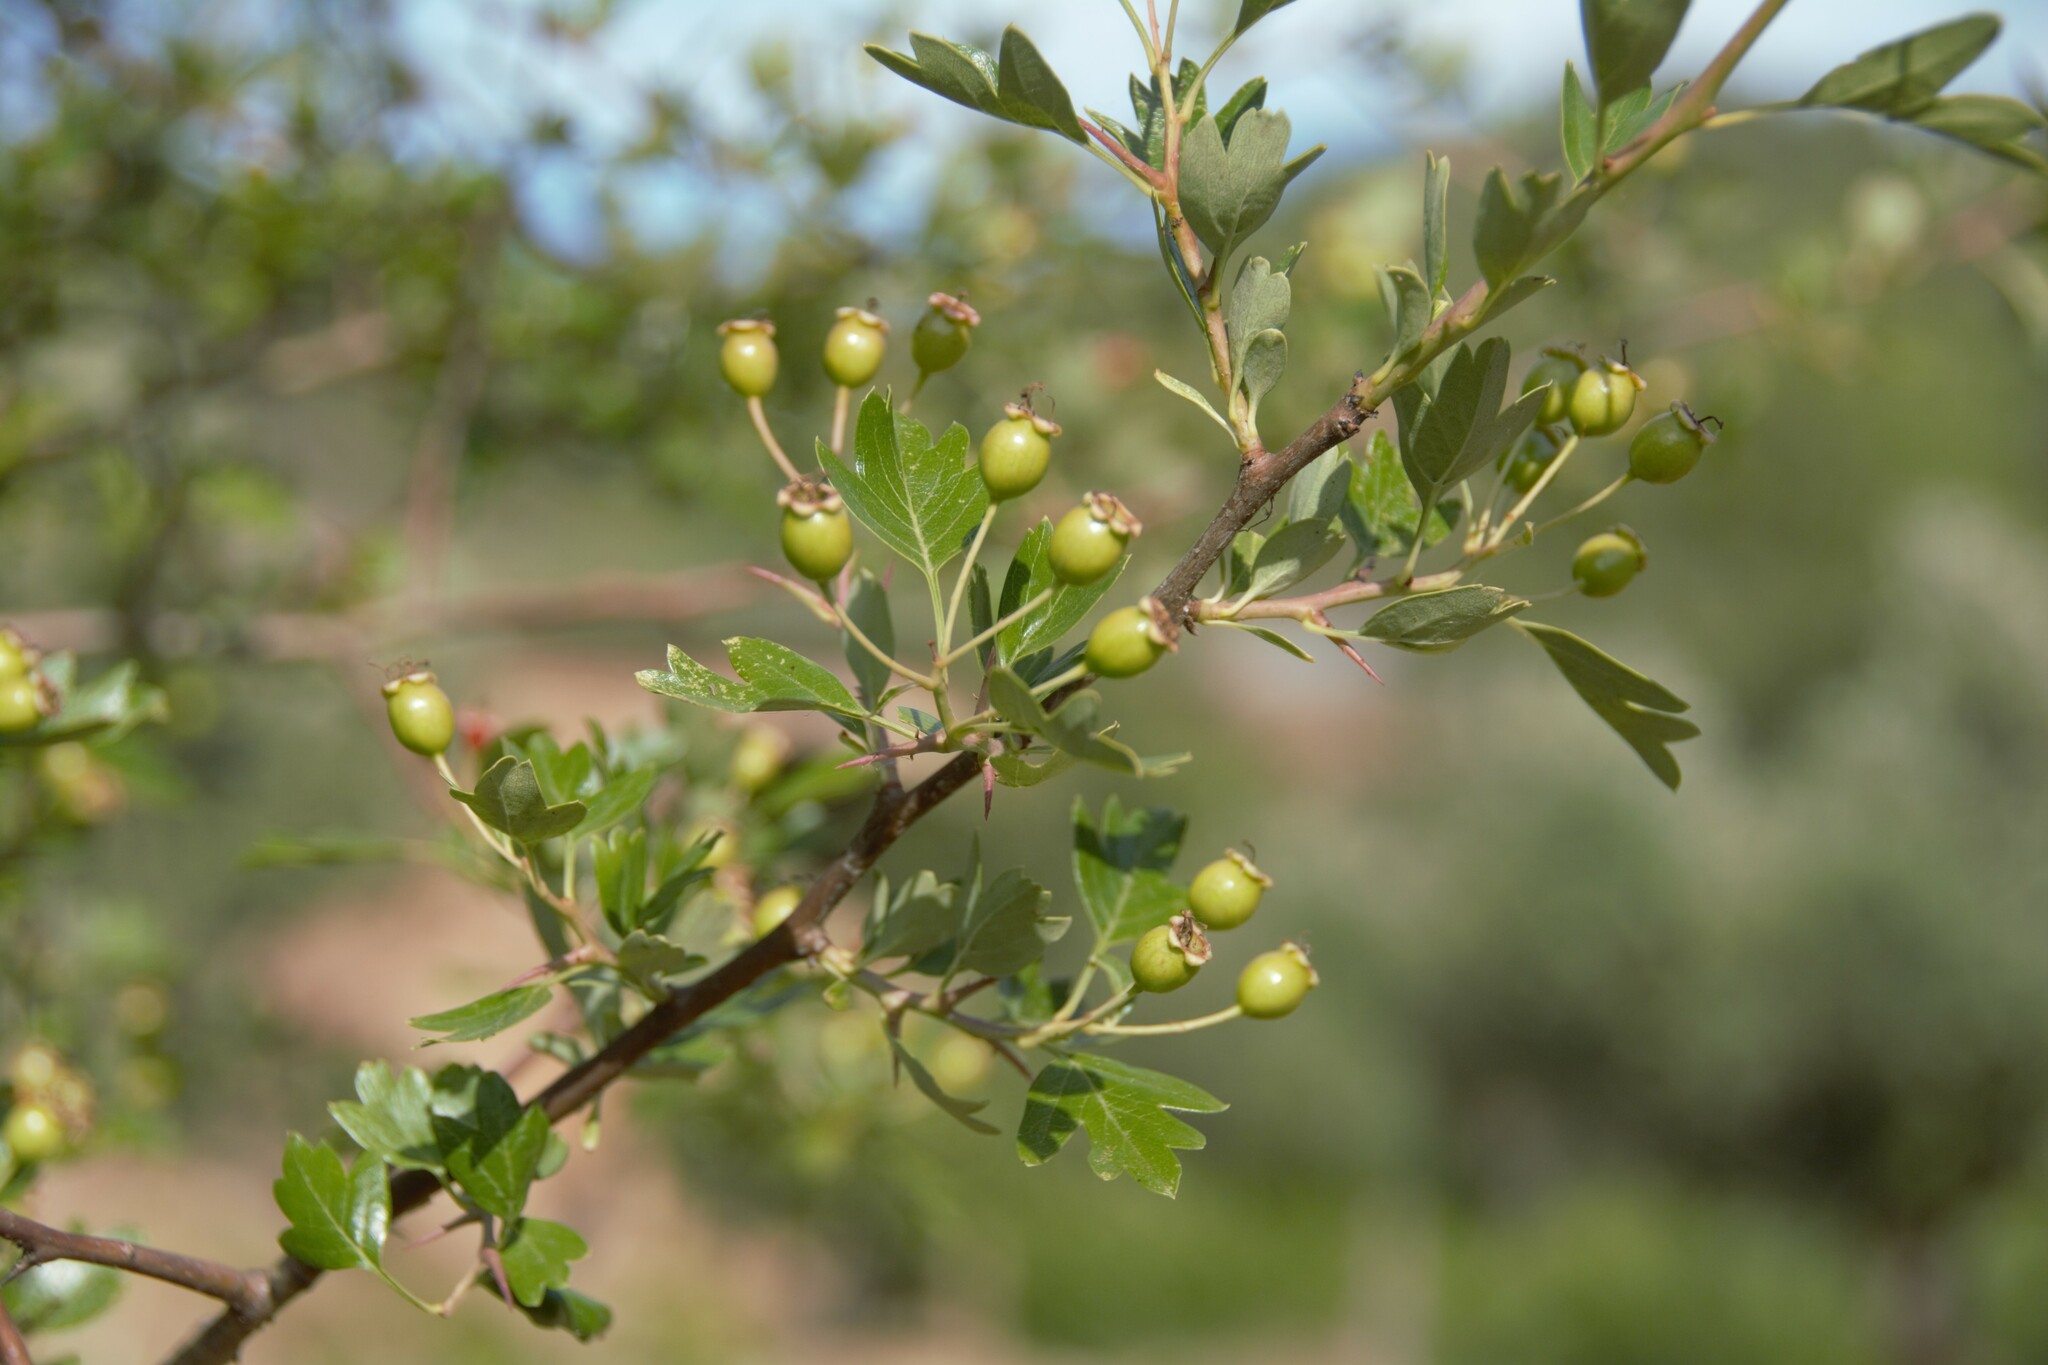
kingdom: Plantae
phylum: Tracheophyta
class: Magnoliopsida
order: Rosales
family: Rosaceae
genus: Crataegus
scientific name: Crataegus monogyna
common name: Hawthorn
